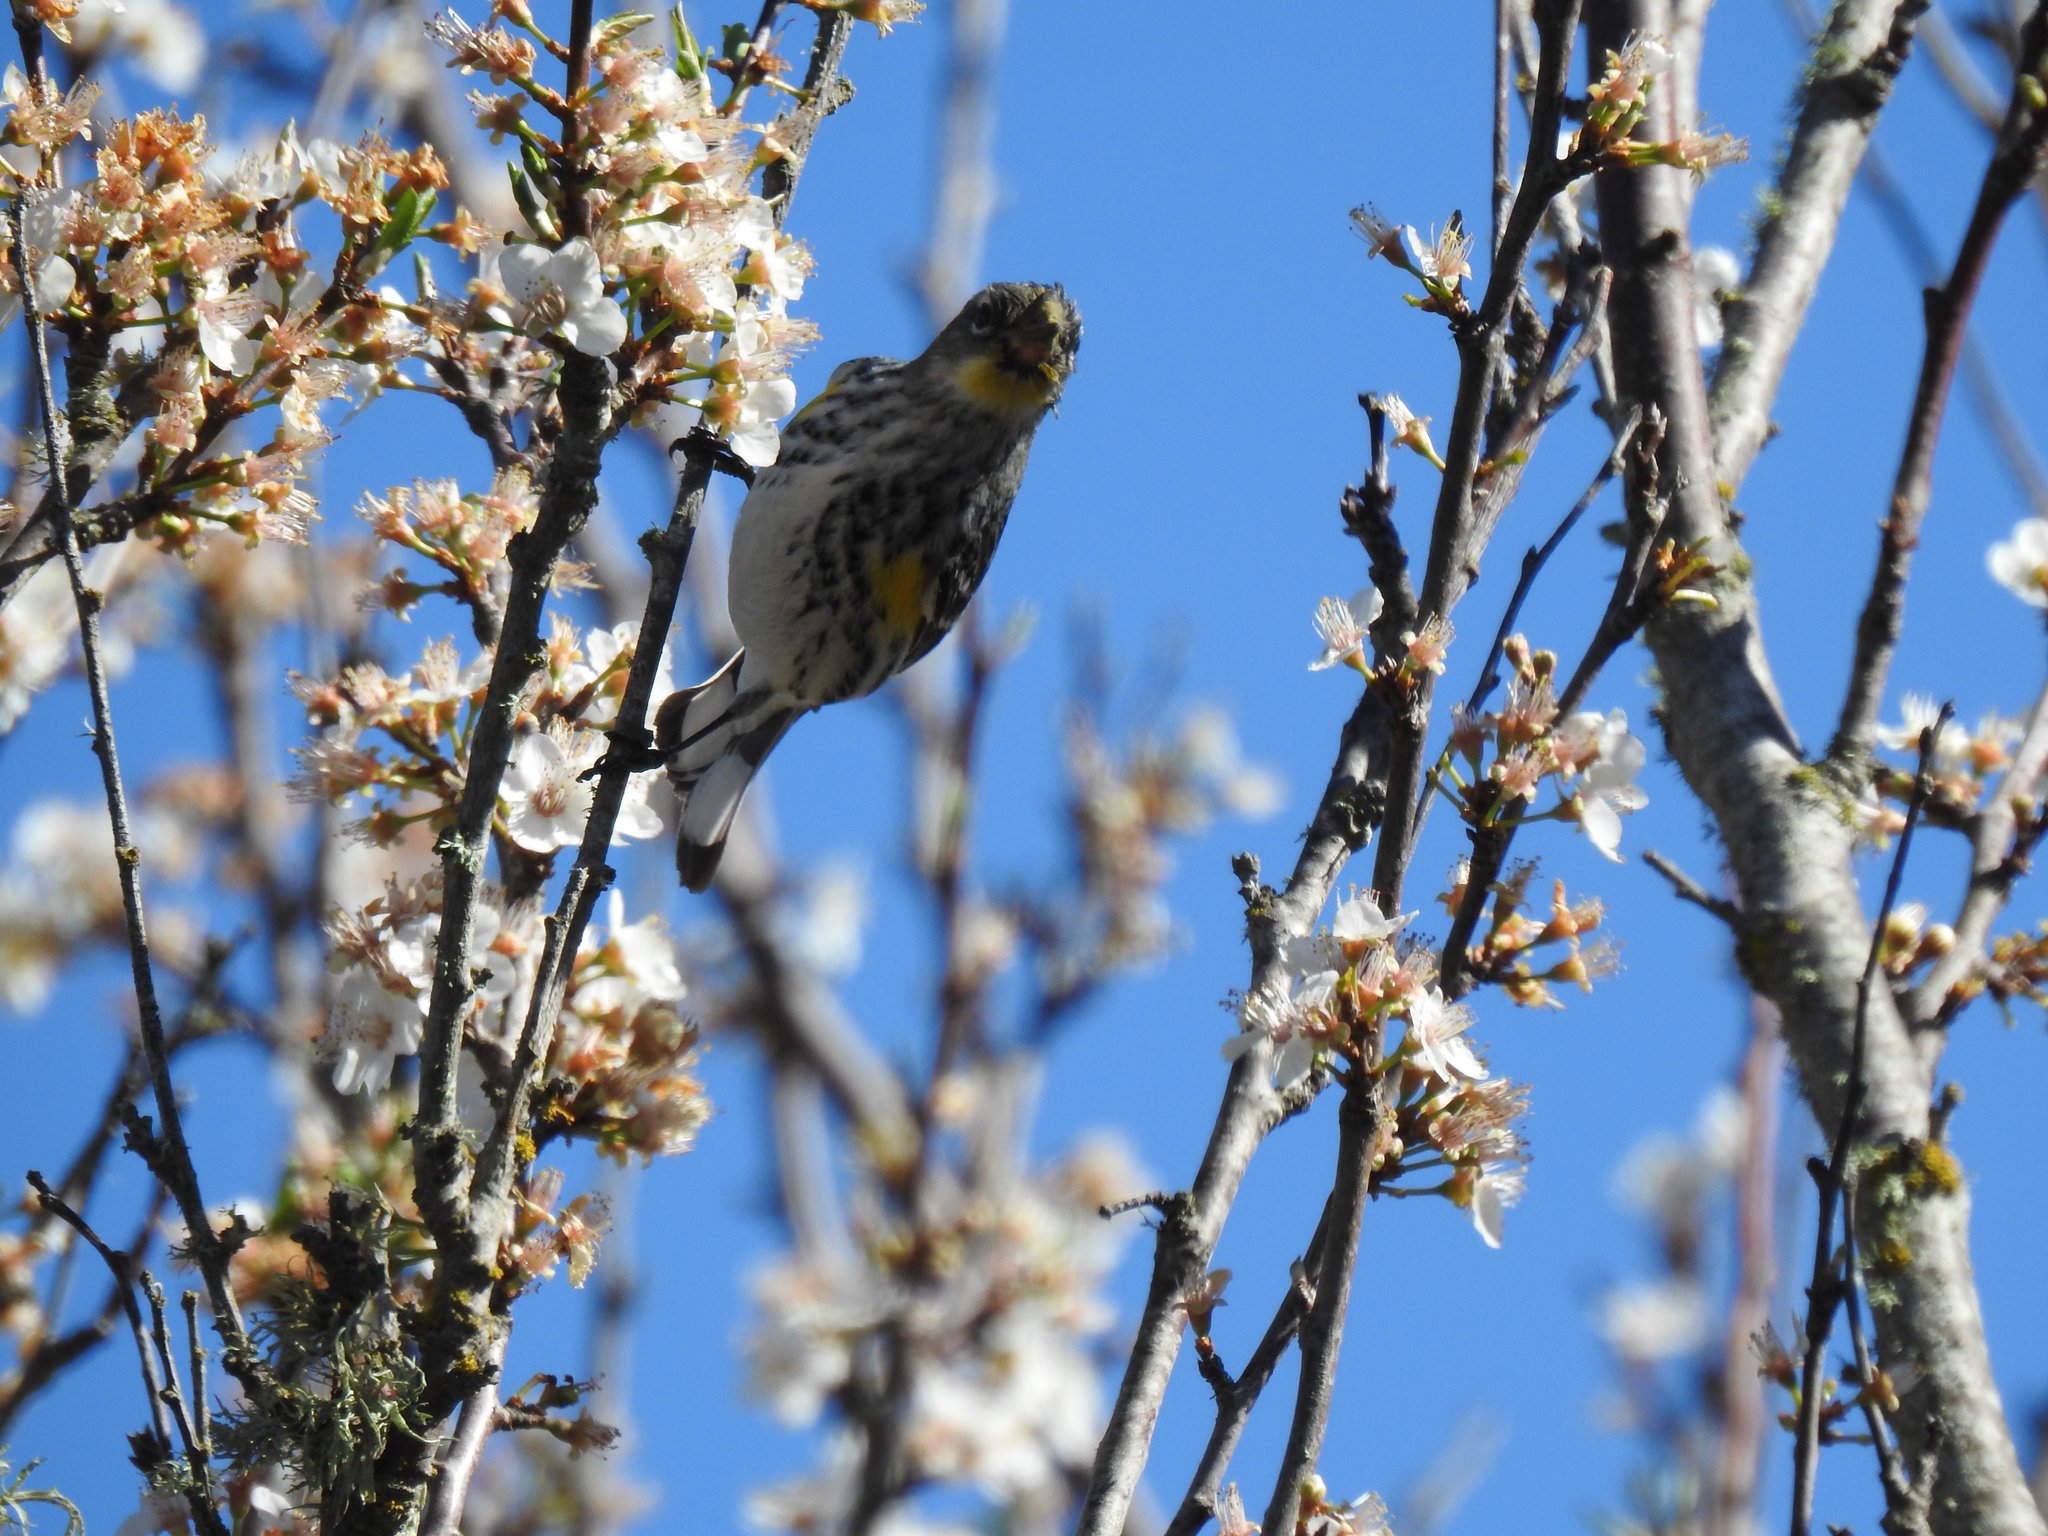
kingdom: Animalia
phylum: Chordata
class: Aves
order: Passeriformes
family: Parulidae
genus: Setophaga
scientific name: Setophaga coronata
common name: Myrtle warbler
